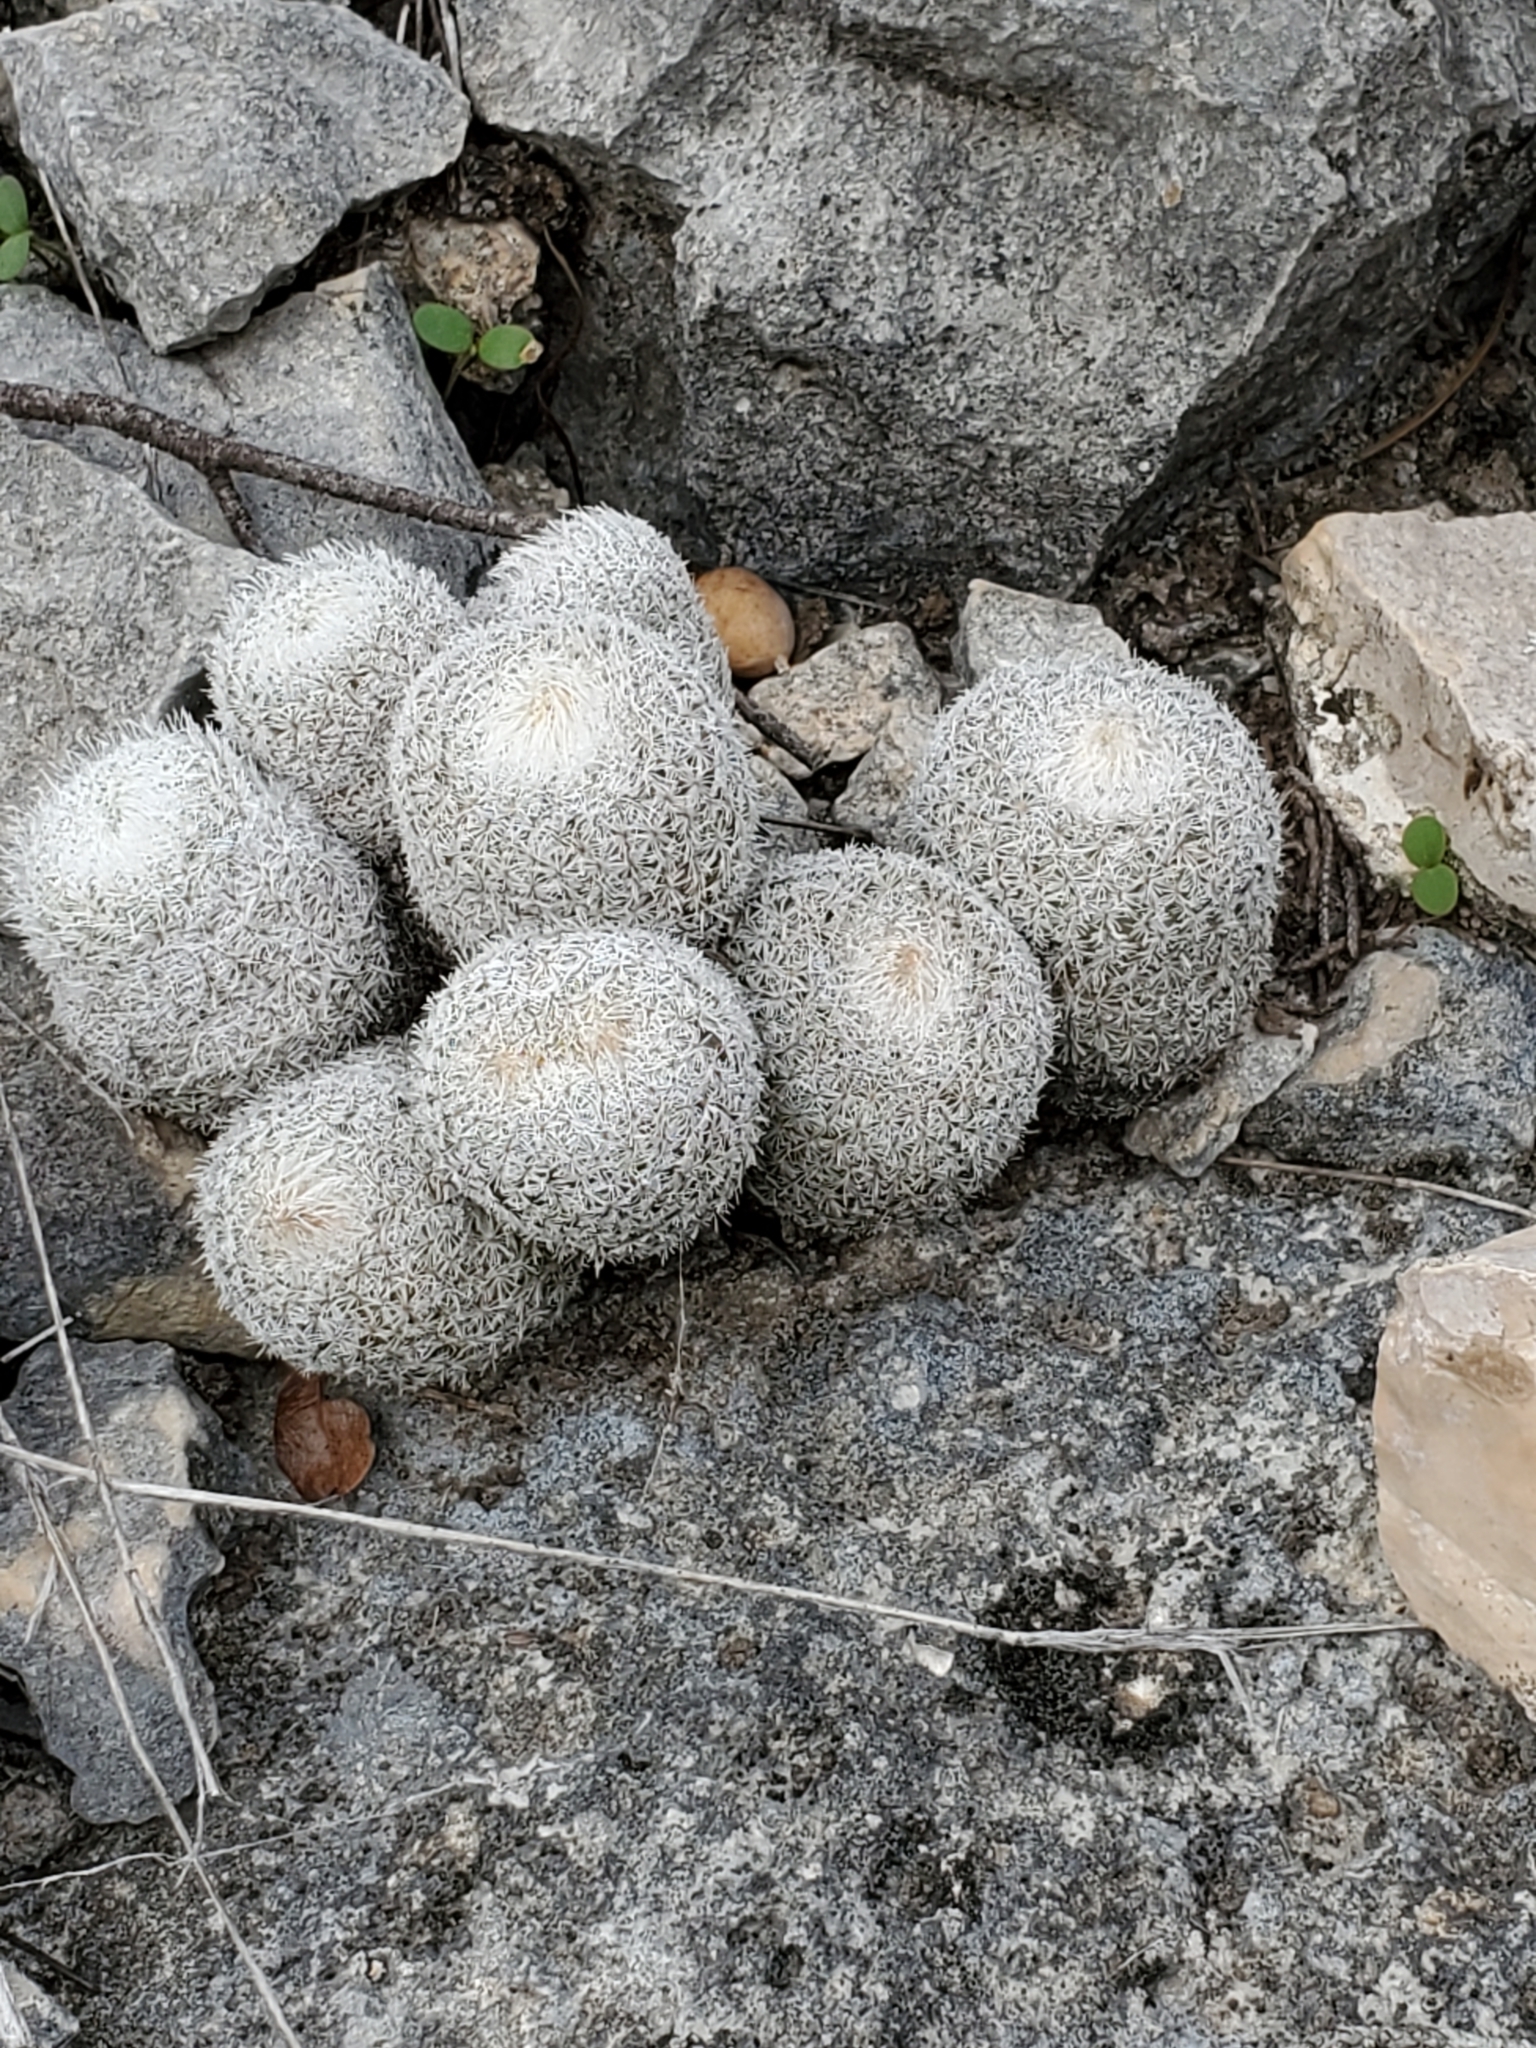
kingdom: Plantae
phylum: Tracheophyta
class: Magnoliopsida
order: Caryophyllales
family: Cactaceae
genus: Epithelantha
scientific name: Epithelantha micromeris
